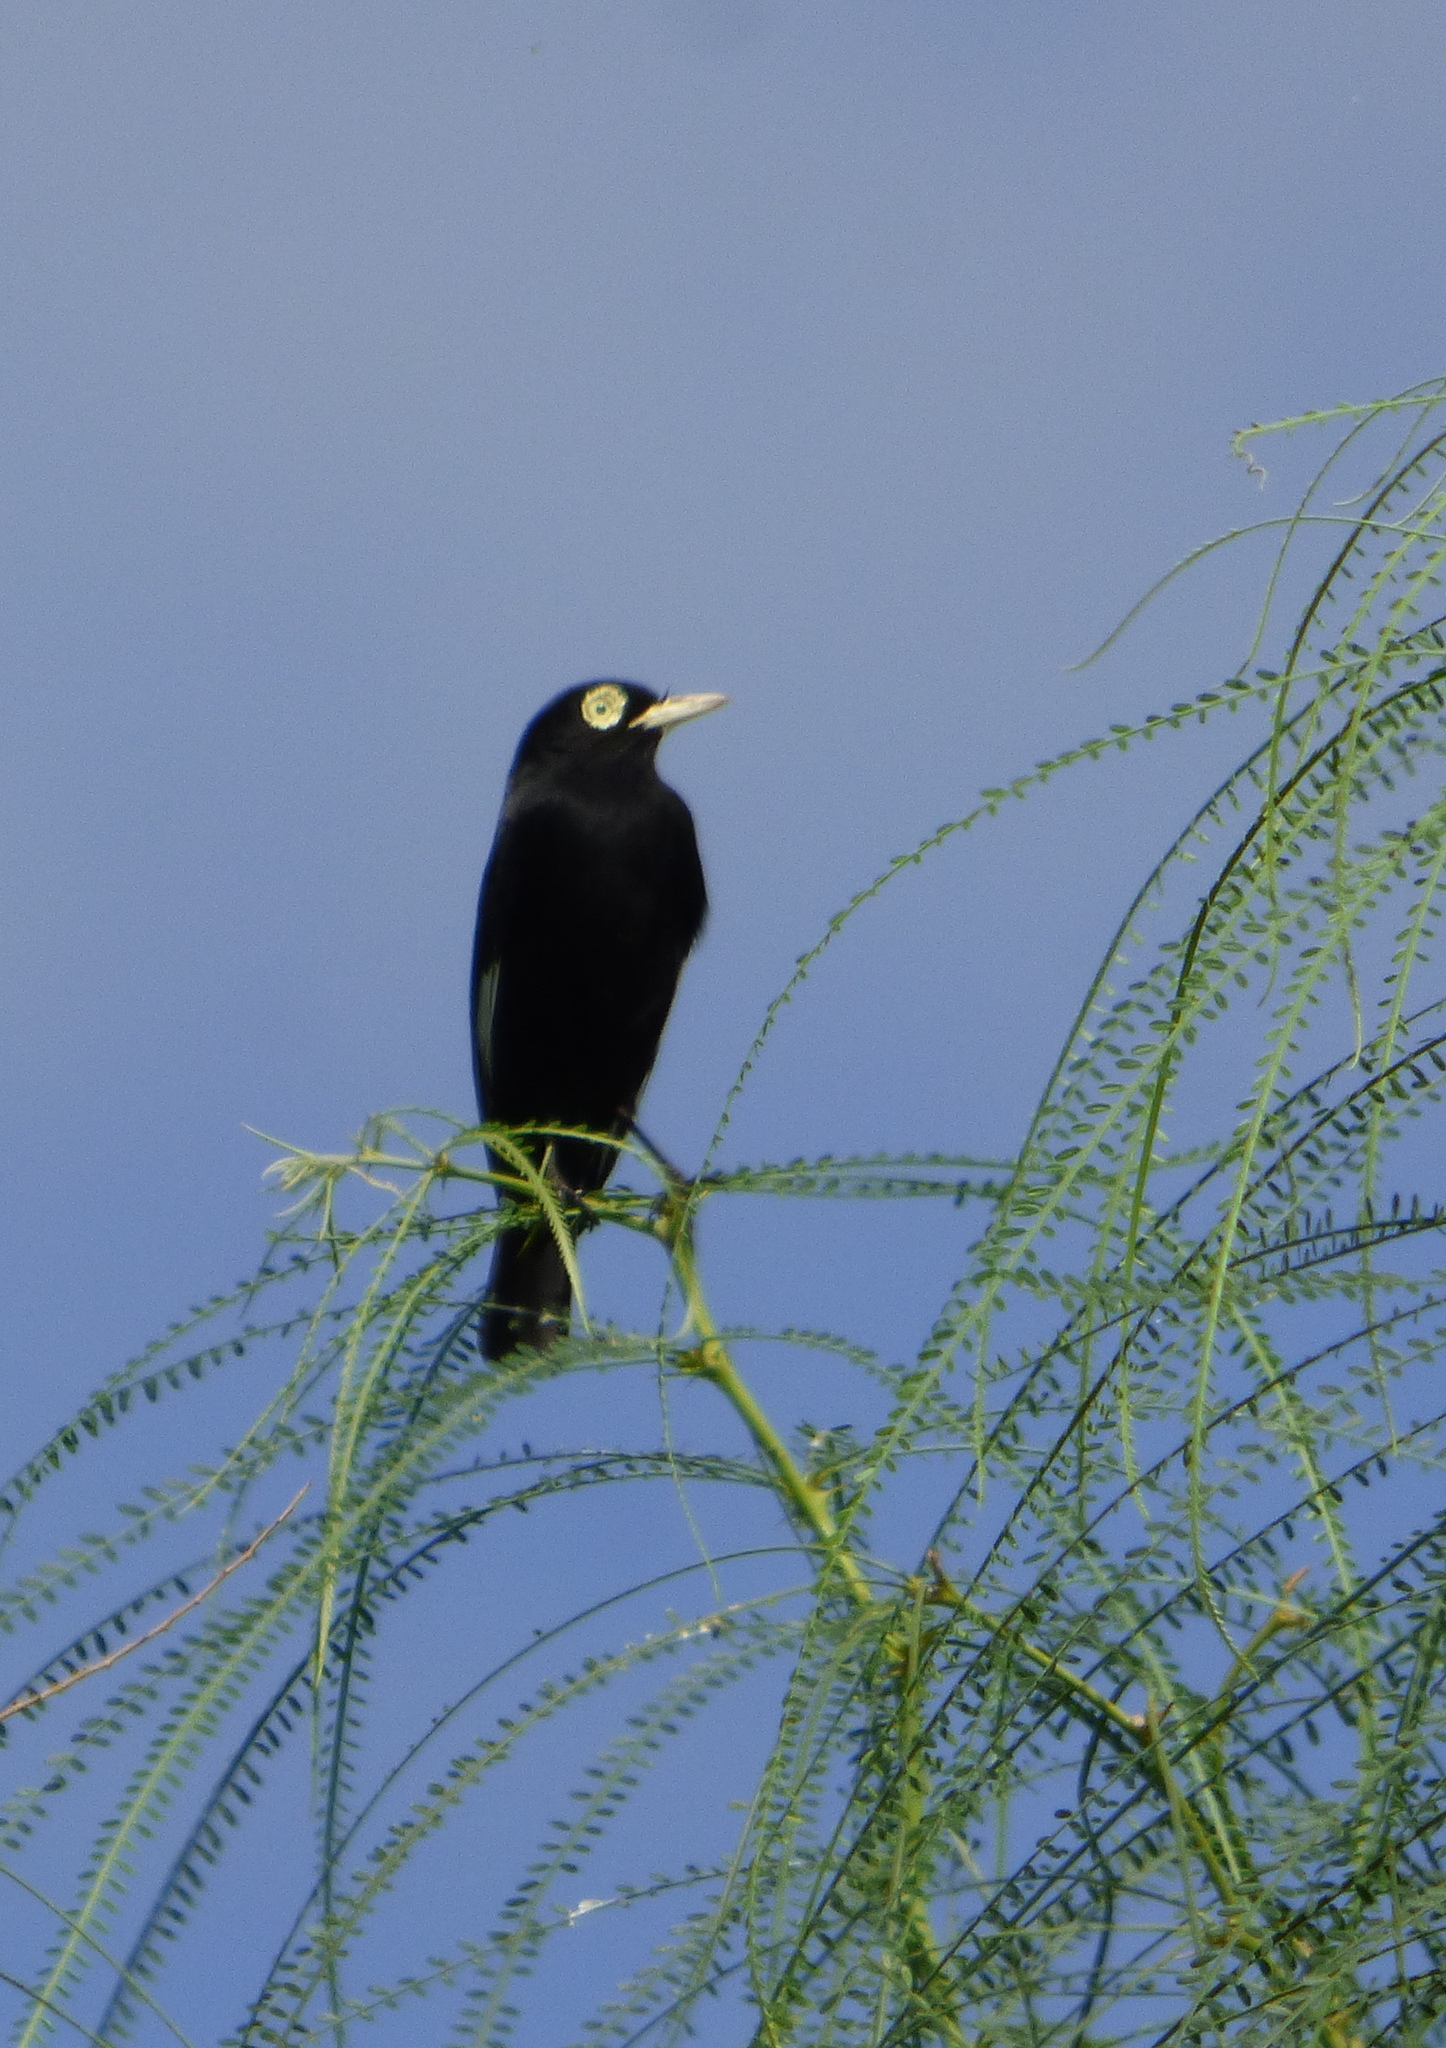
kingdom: Animalia
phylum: Chordata
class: Aves
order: Passeriformes
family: Tyrannidae
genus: Hymenops
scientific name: Hymenops perspicillatus
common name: Spectacled tyrant
